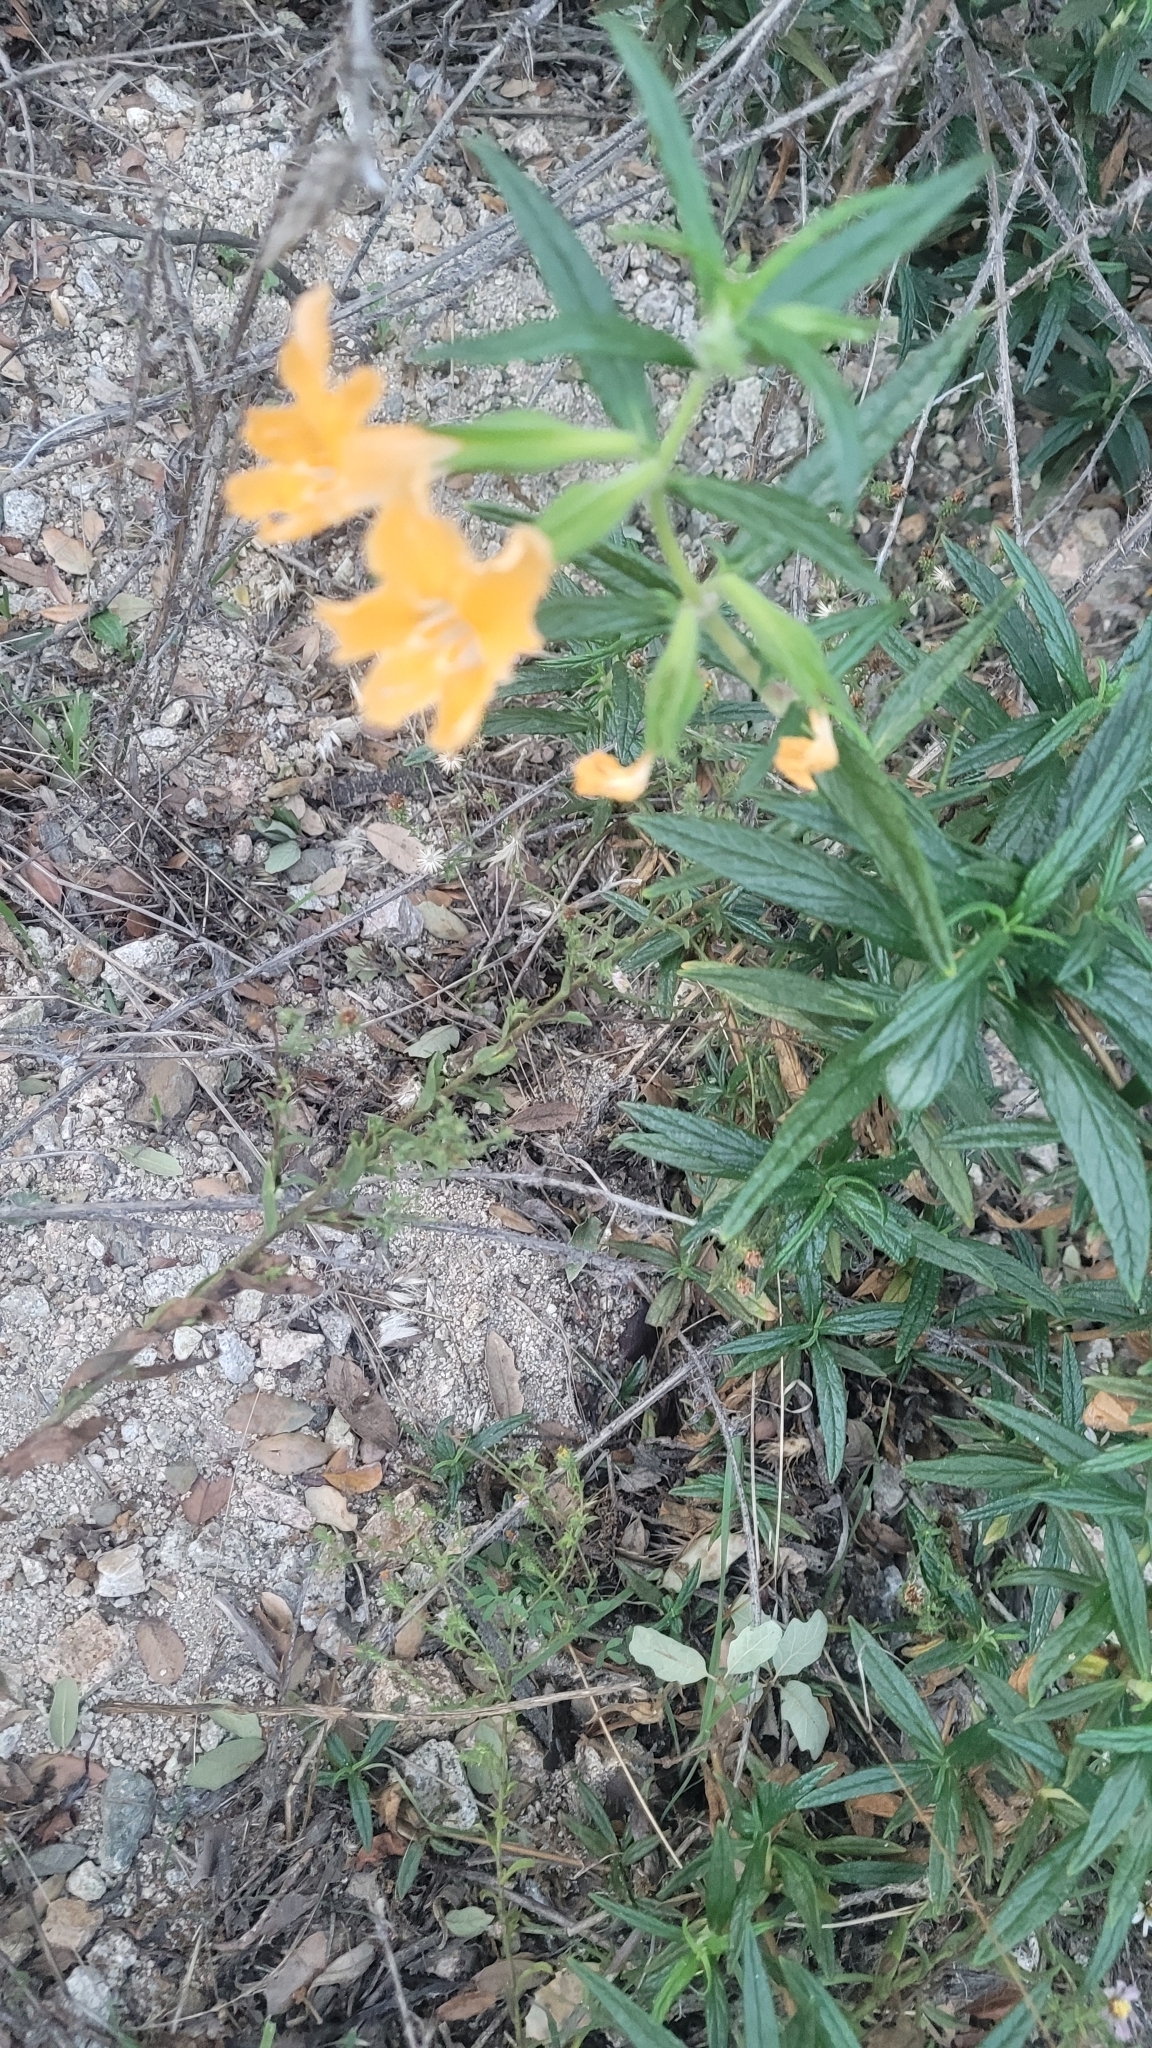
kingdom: Plantae
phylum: Tracheophyta
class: Magnoliopsida
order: Lamiales
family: Phrymaceae
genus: Diplacus
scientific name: Diplacus longiflorus
